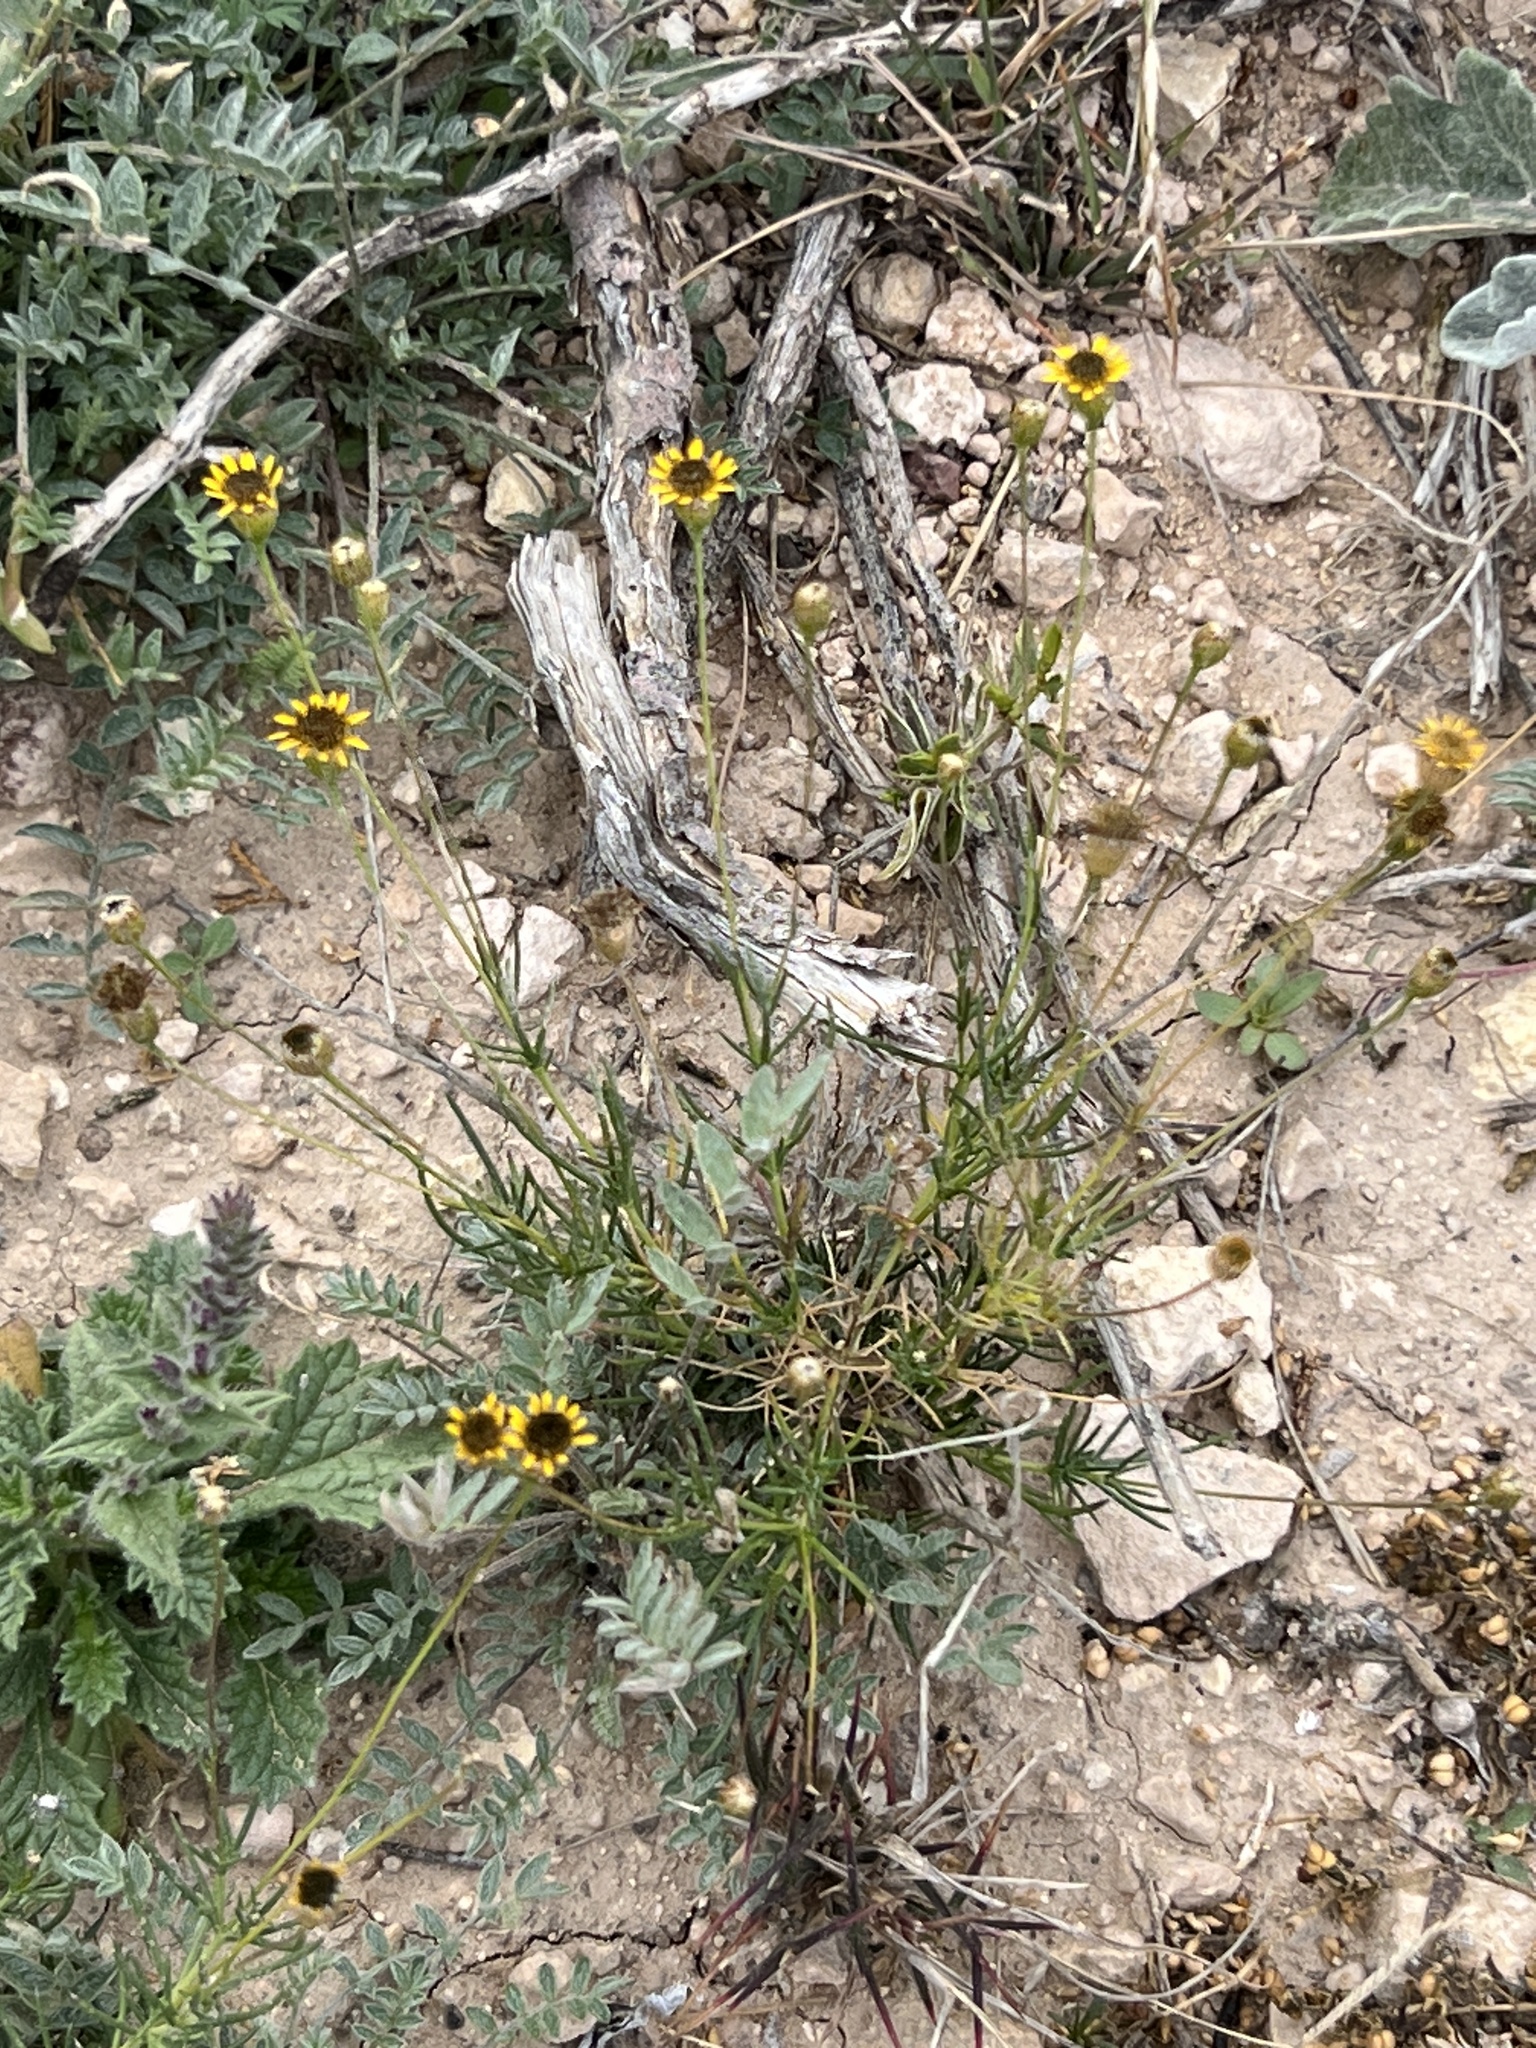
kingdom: Plantae
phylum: Tracheophyta
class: Magnoliopsida
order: Asterales
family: Asteraceae
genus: Helianthus
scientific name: Helianthus ciliaris
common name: Texas blueweed
